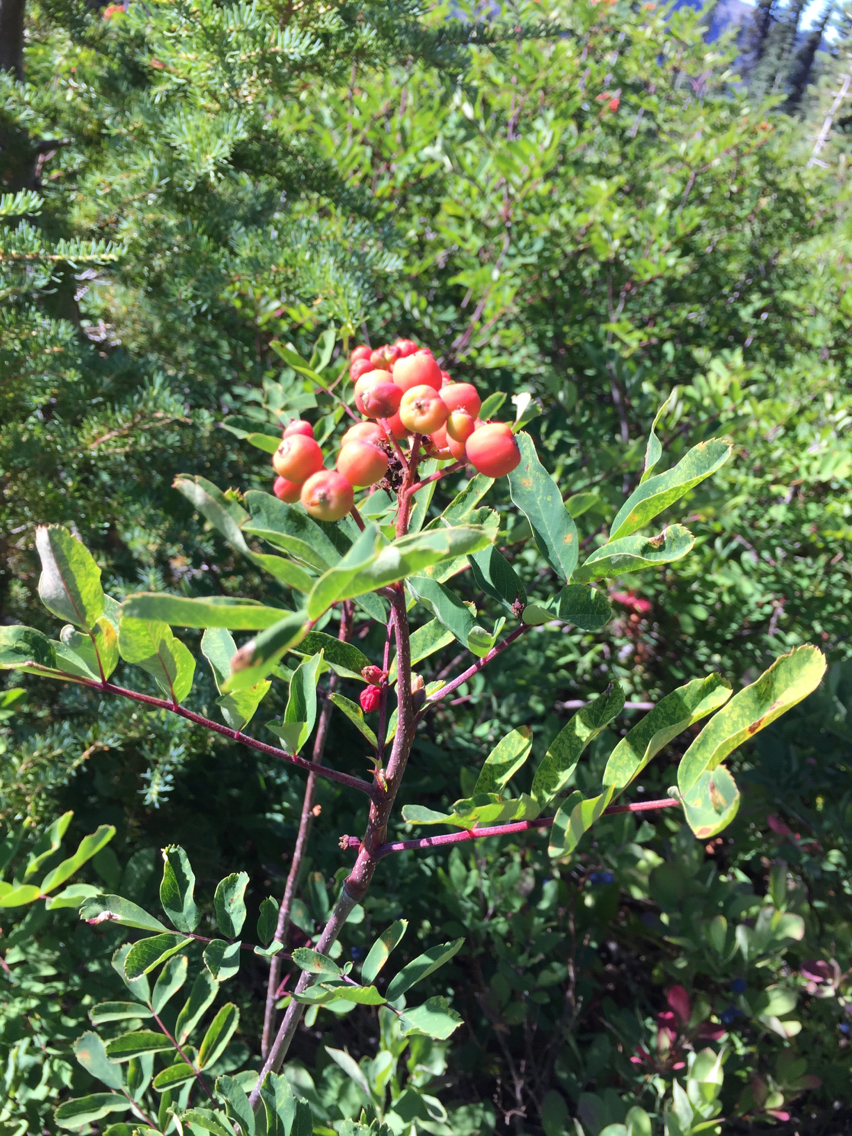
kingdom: Plantae
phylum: Tracheophyta
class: Magnoliopsida
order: Rosales
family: Rosaceae
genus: Sorbus
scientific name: Sorbus sitchensis
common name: Sitka mountain-ash
